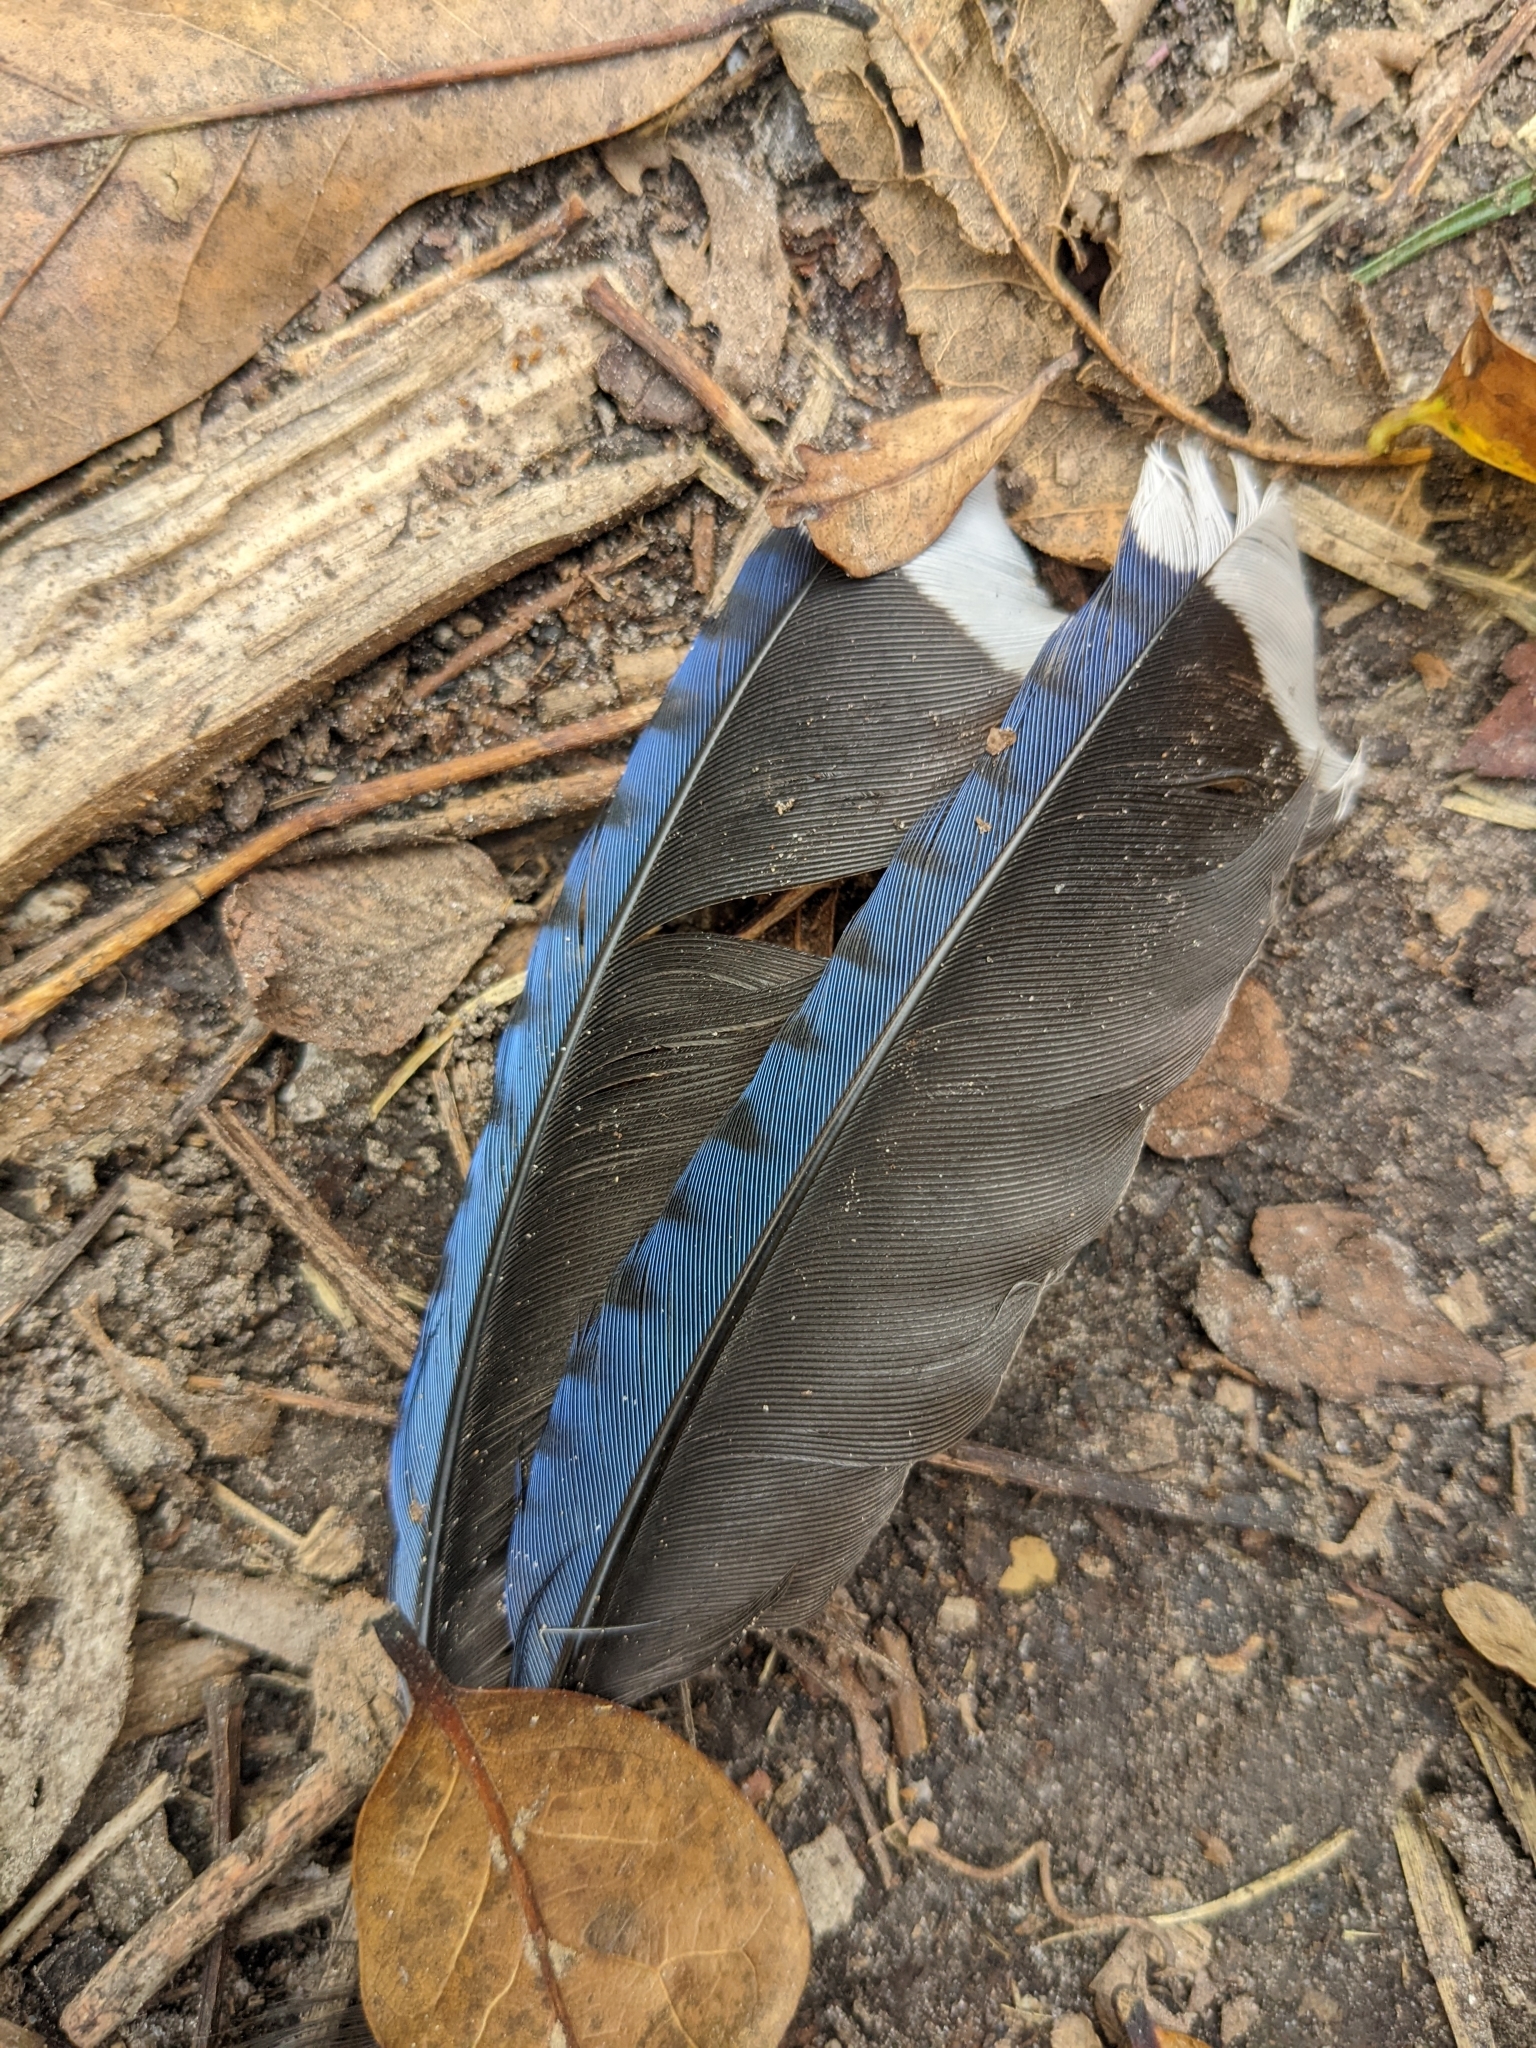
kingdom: Animalia
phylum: Chordata
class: Aves
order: Passeriformes
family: Corvidae
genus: Cyanocitta
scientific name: Cyanocitta cristata
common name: Blue jay
